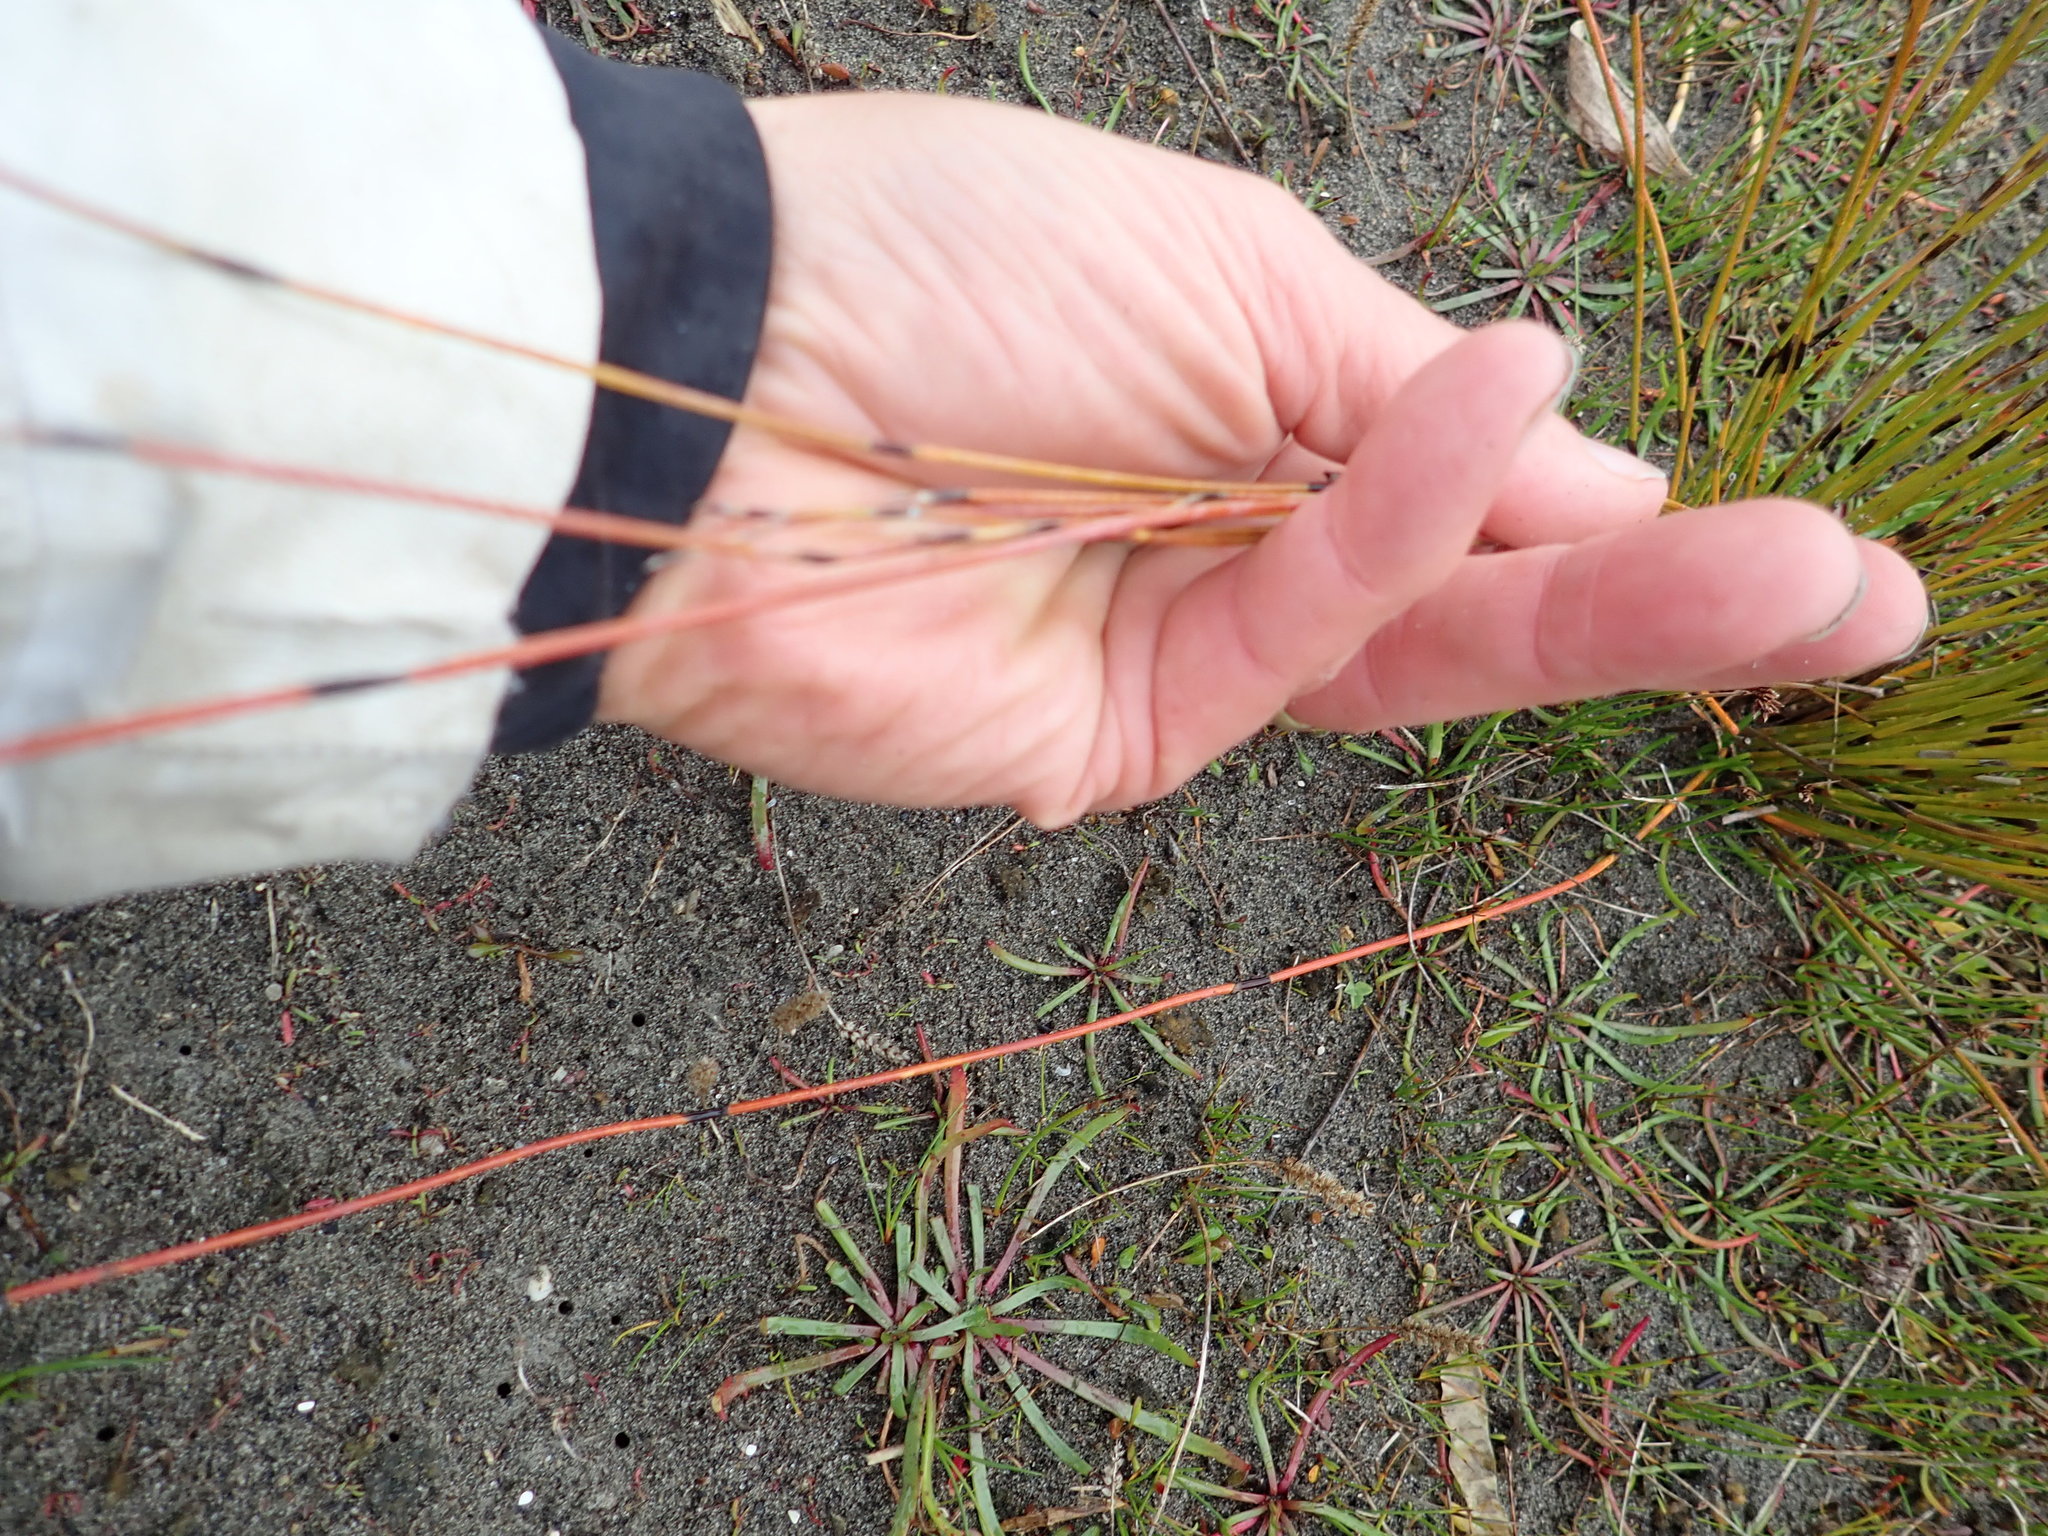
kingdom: Plantae
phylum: Tracheophyta
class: Liliopsida
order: Poales
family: Restionaceae
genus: Apodasmia
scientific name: Apodasmia similis
